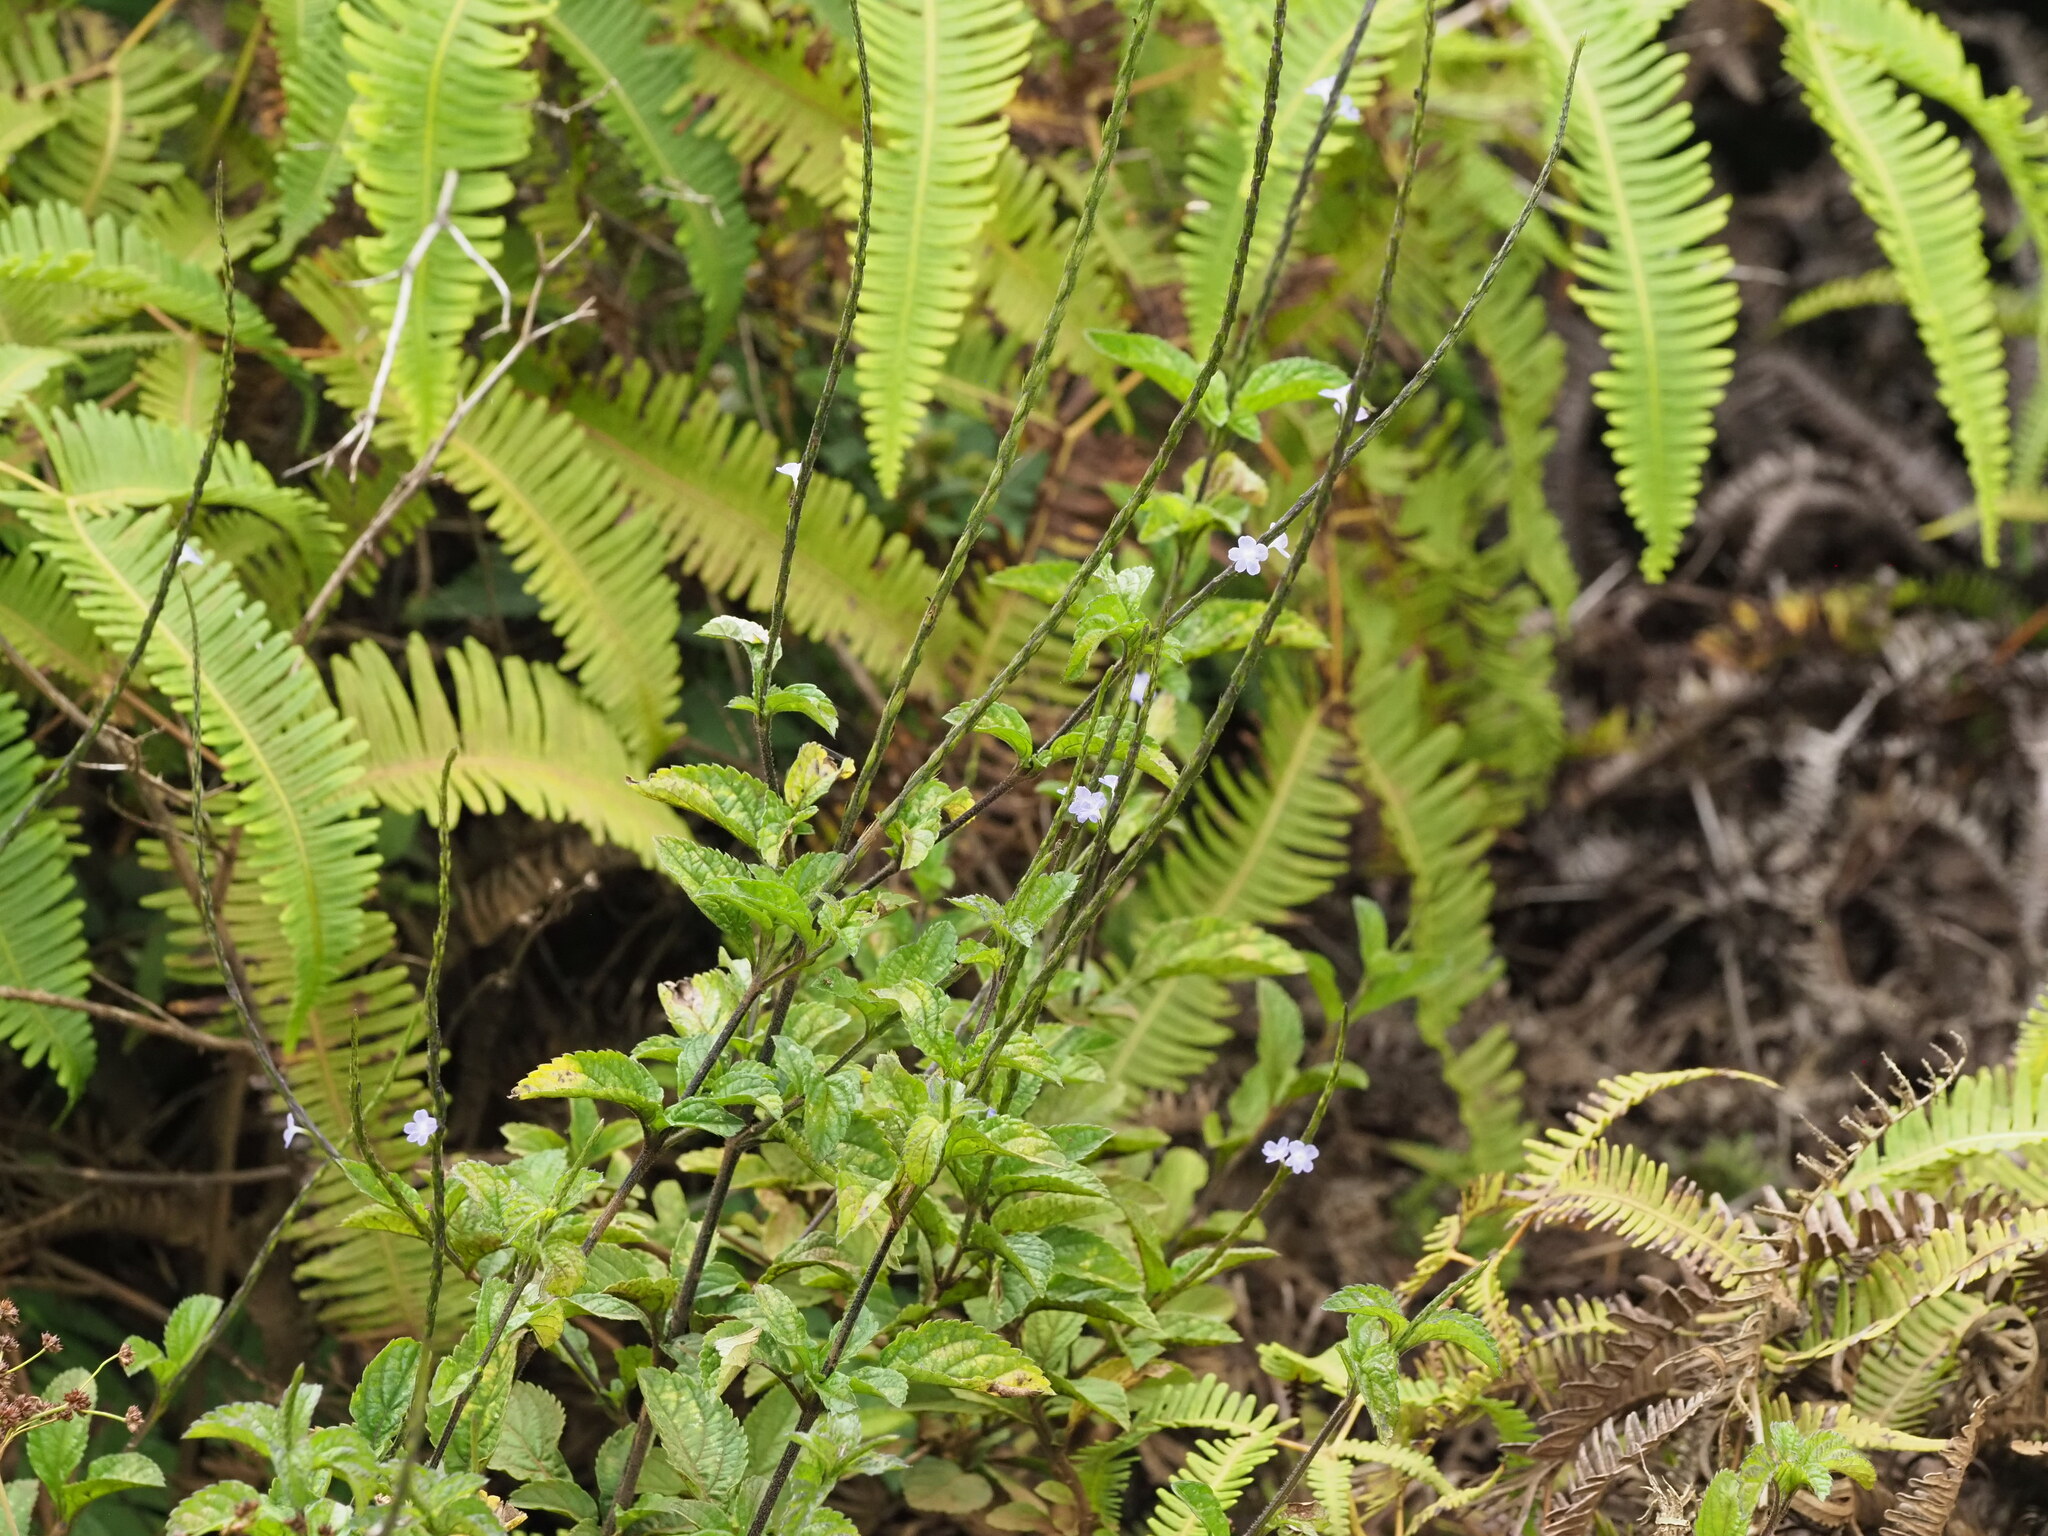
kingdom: Plantae
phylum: Tracheophyta
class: Magnoliopsida
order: Lamiales
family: Verbenaceae
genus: Stachytarpheta
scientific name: Stachytarpheta cayennensis
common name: Cayenne porterweed
